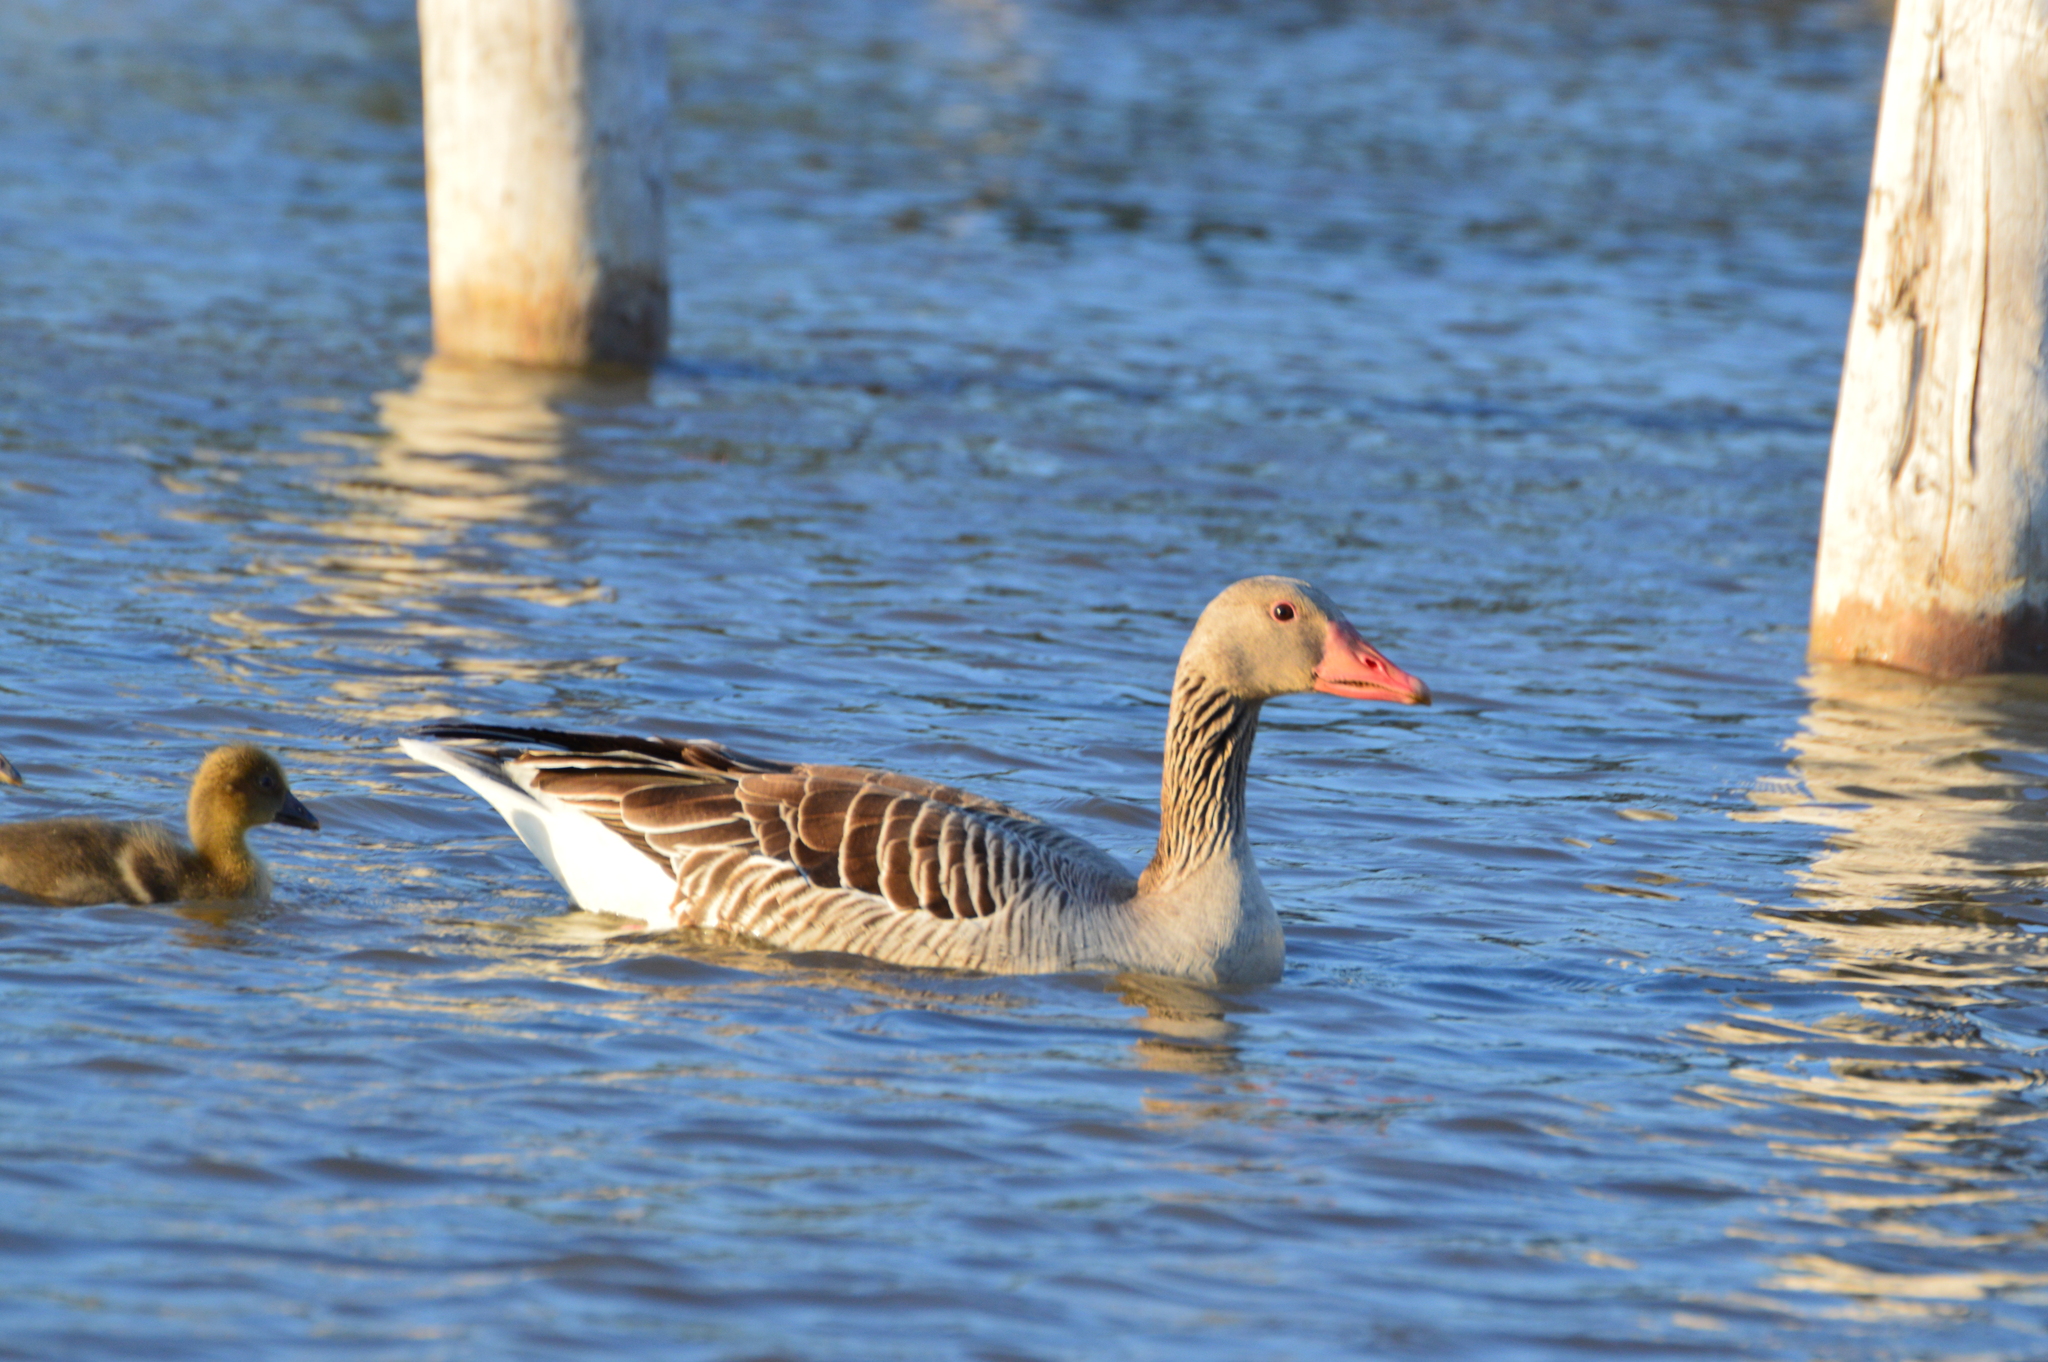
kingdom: Animalia
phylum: Chordata
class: Aves
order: Anseriformes
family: Anatidae
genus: Anser
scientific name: Anser anser
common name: Greylag goose
